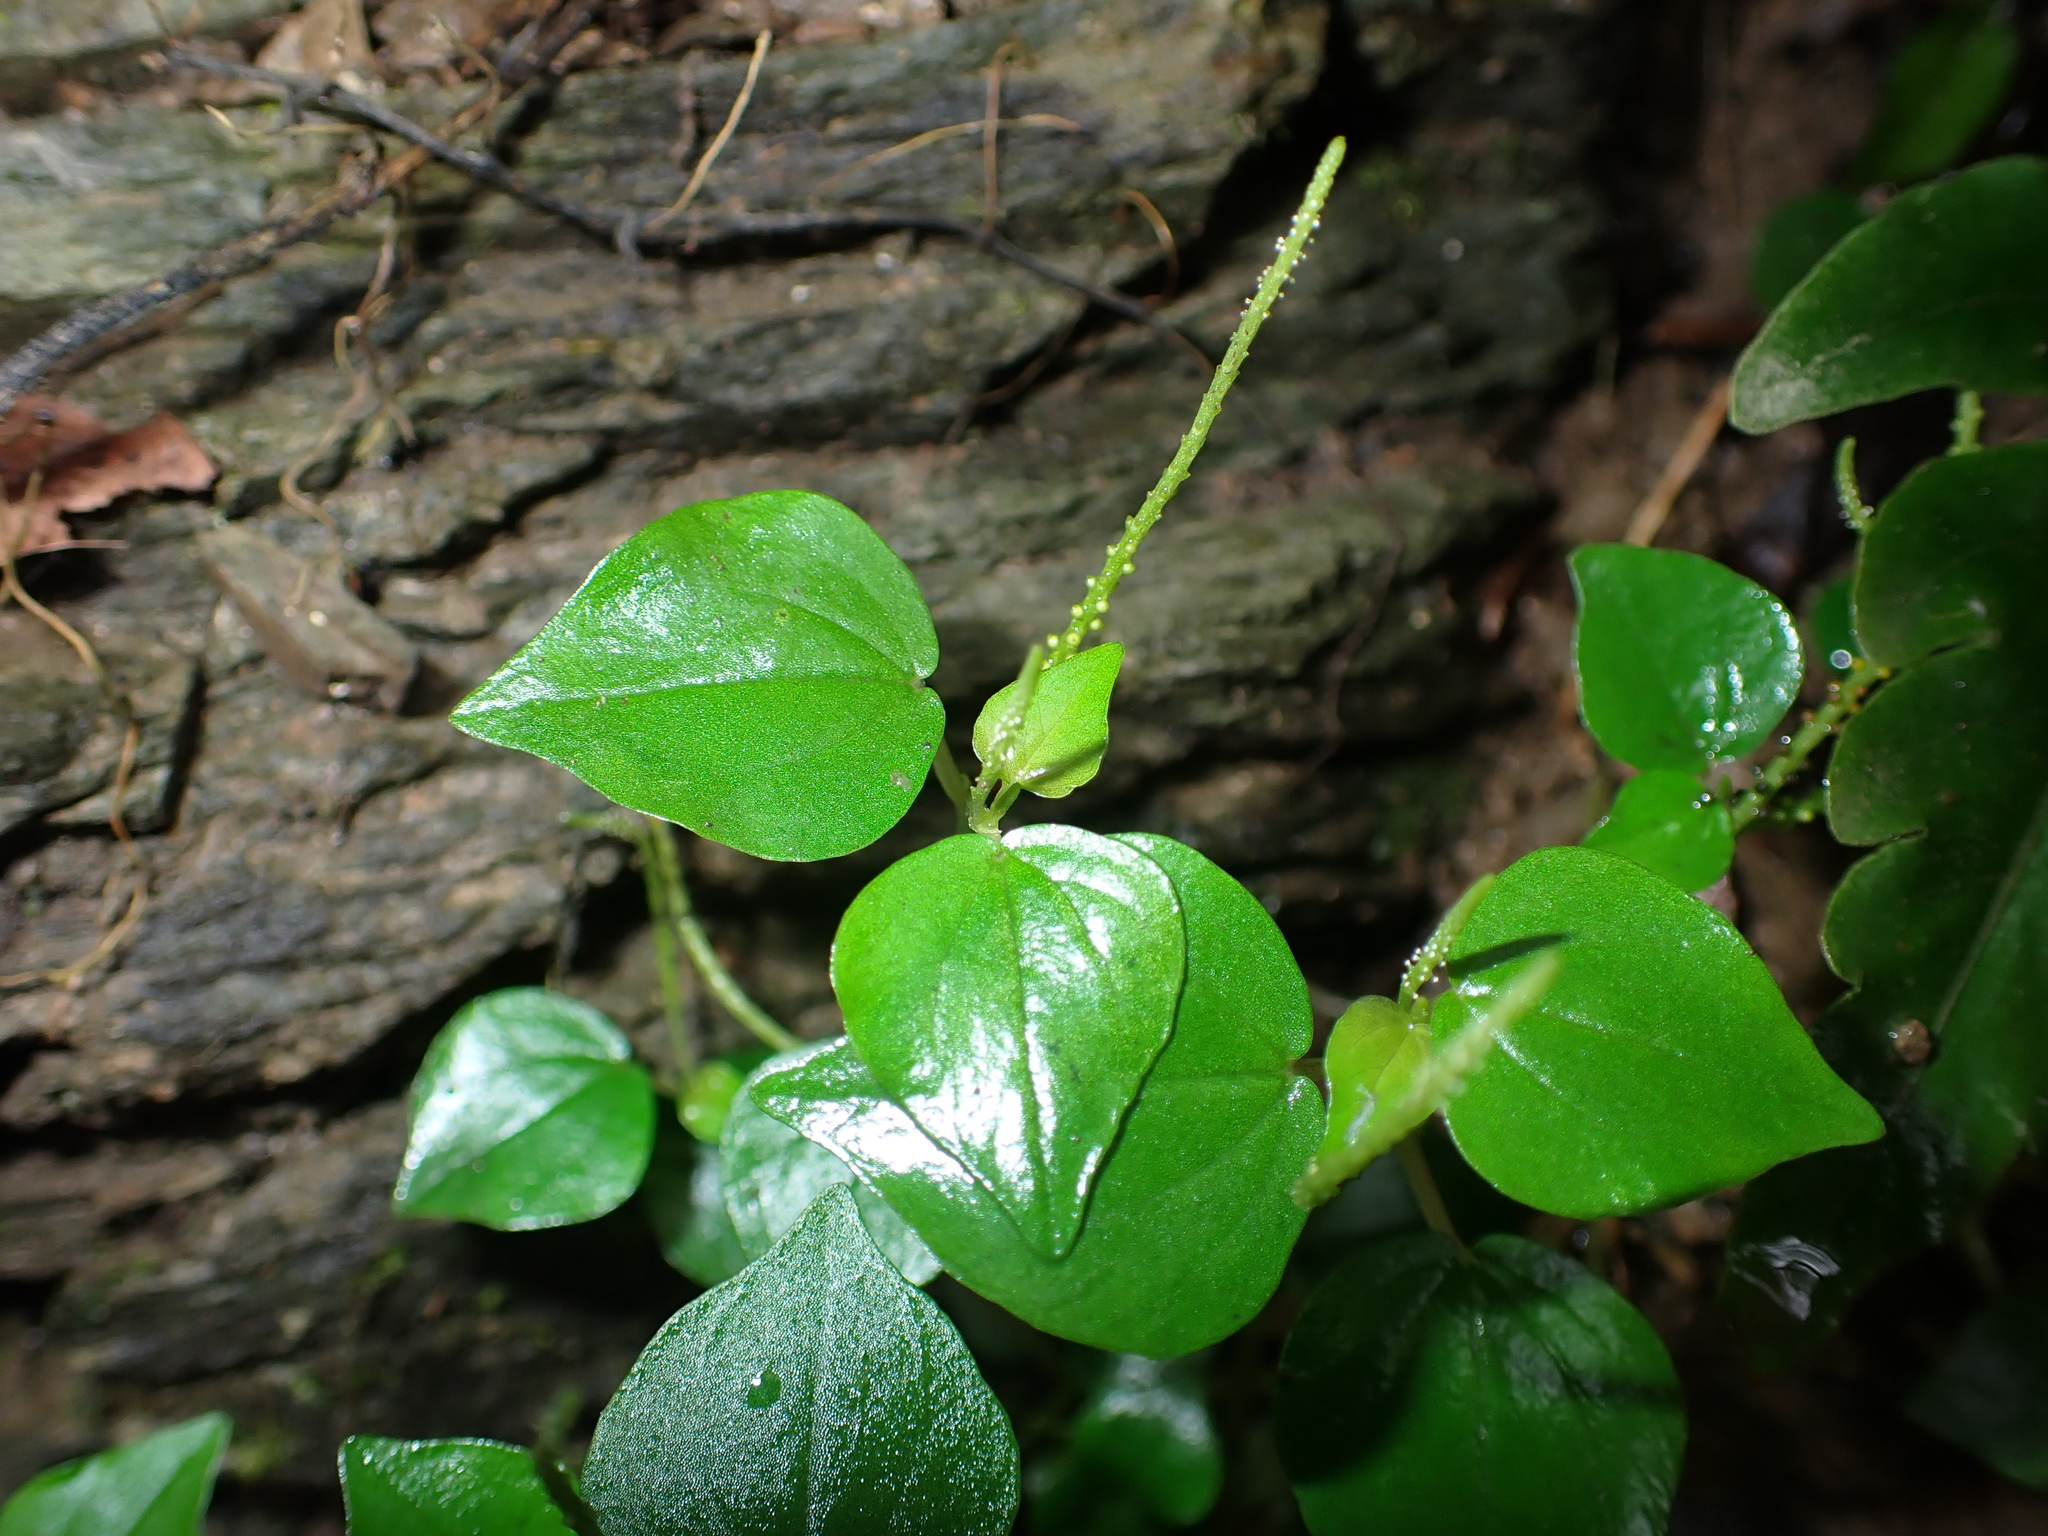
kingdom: Plantae
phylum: Tracheophyta
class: Magnoliopsida
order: Piperales
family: Piperaceae
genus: Peperomia
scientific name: Peperomia pellucida
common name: Man to man
